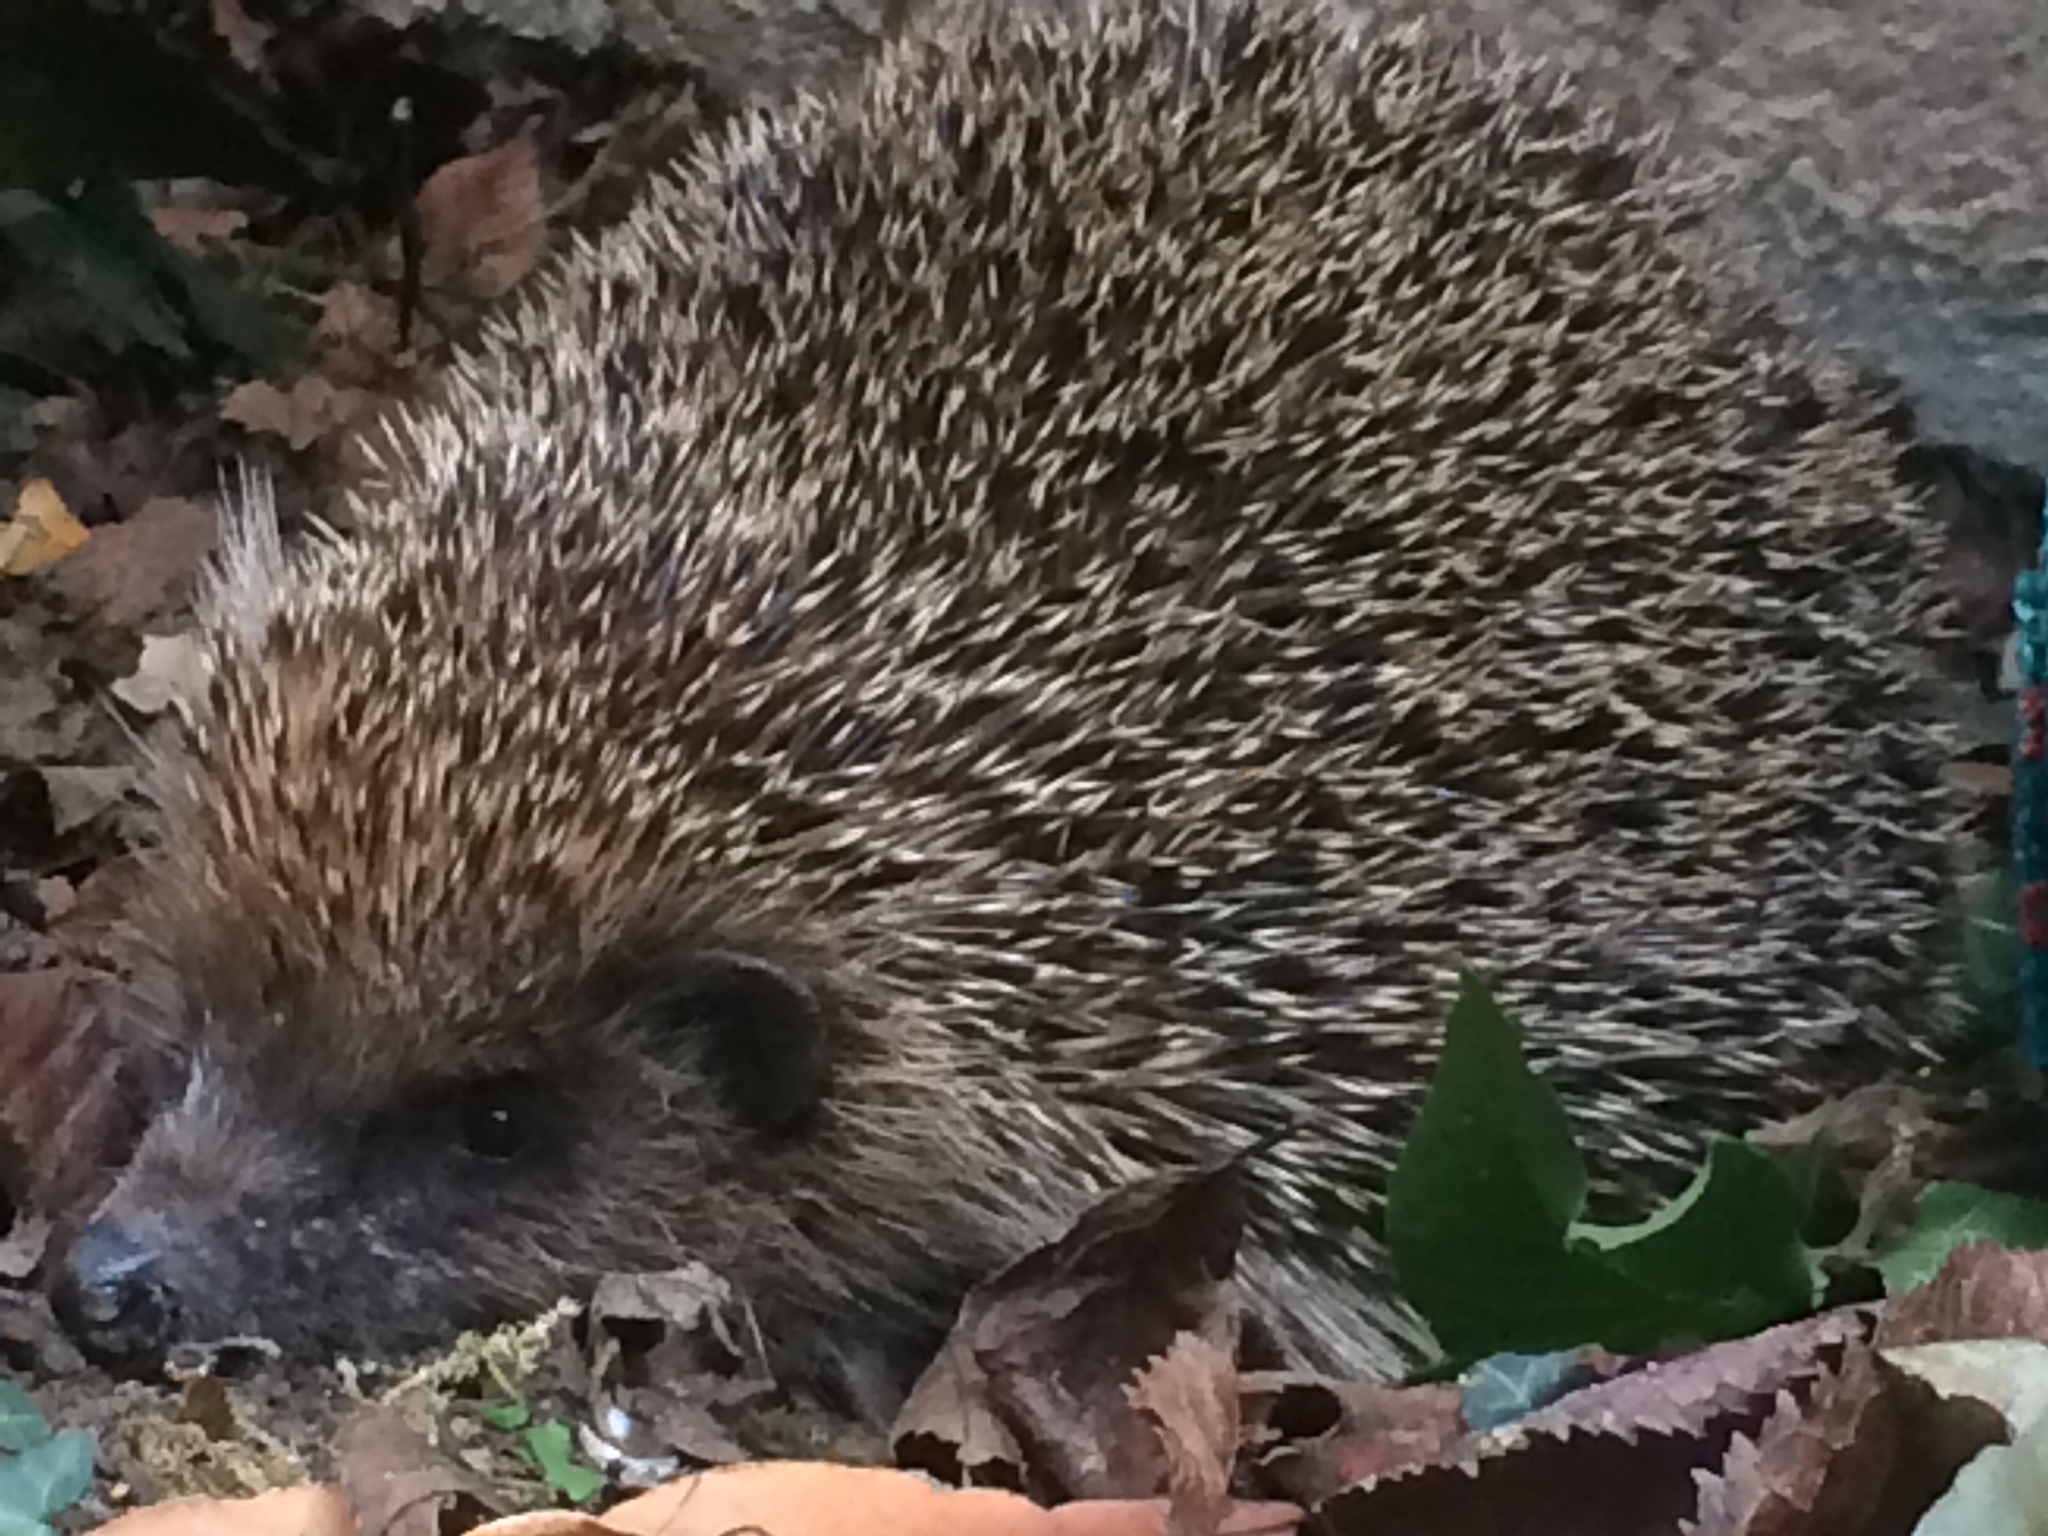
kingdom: Animalia
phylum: Chordata
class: Mammalia
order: Erinaceomorpha
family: Erinaceidae
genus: Erinaceus
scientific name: Erinaceus europaeus
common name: West european hedgehog
